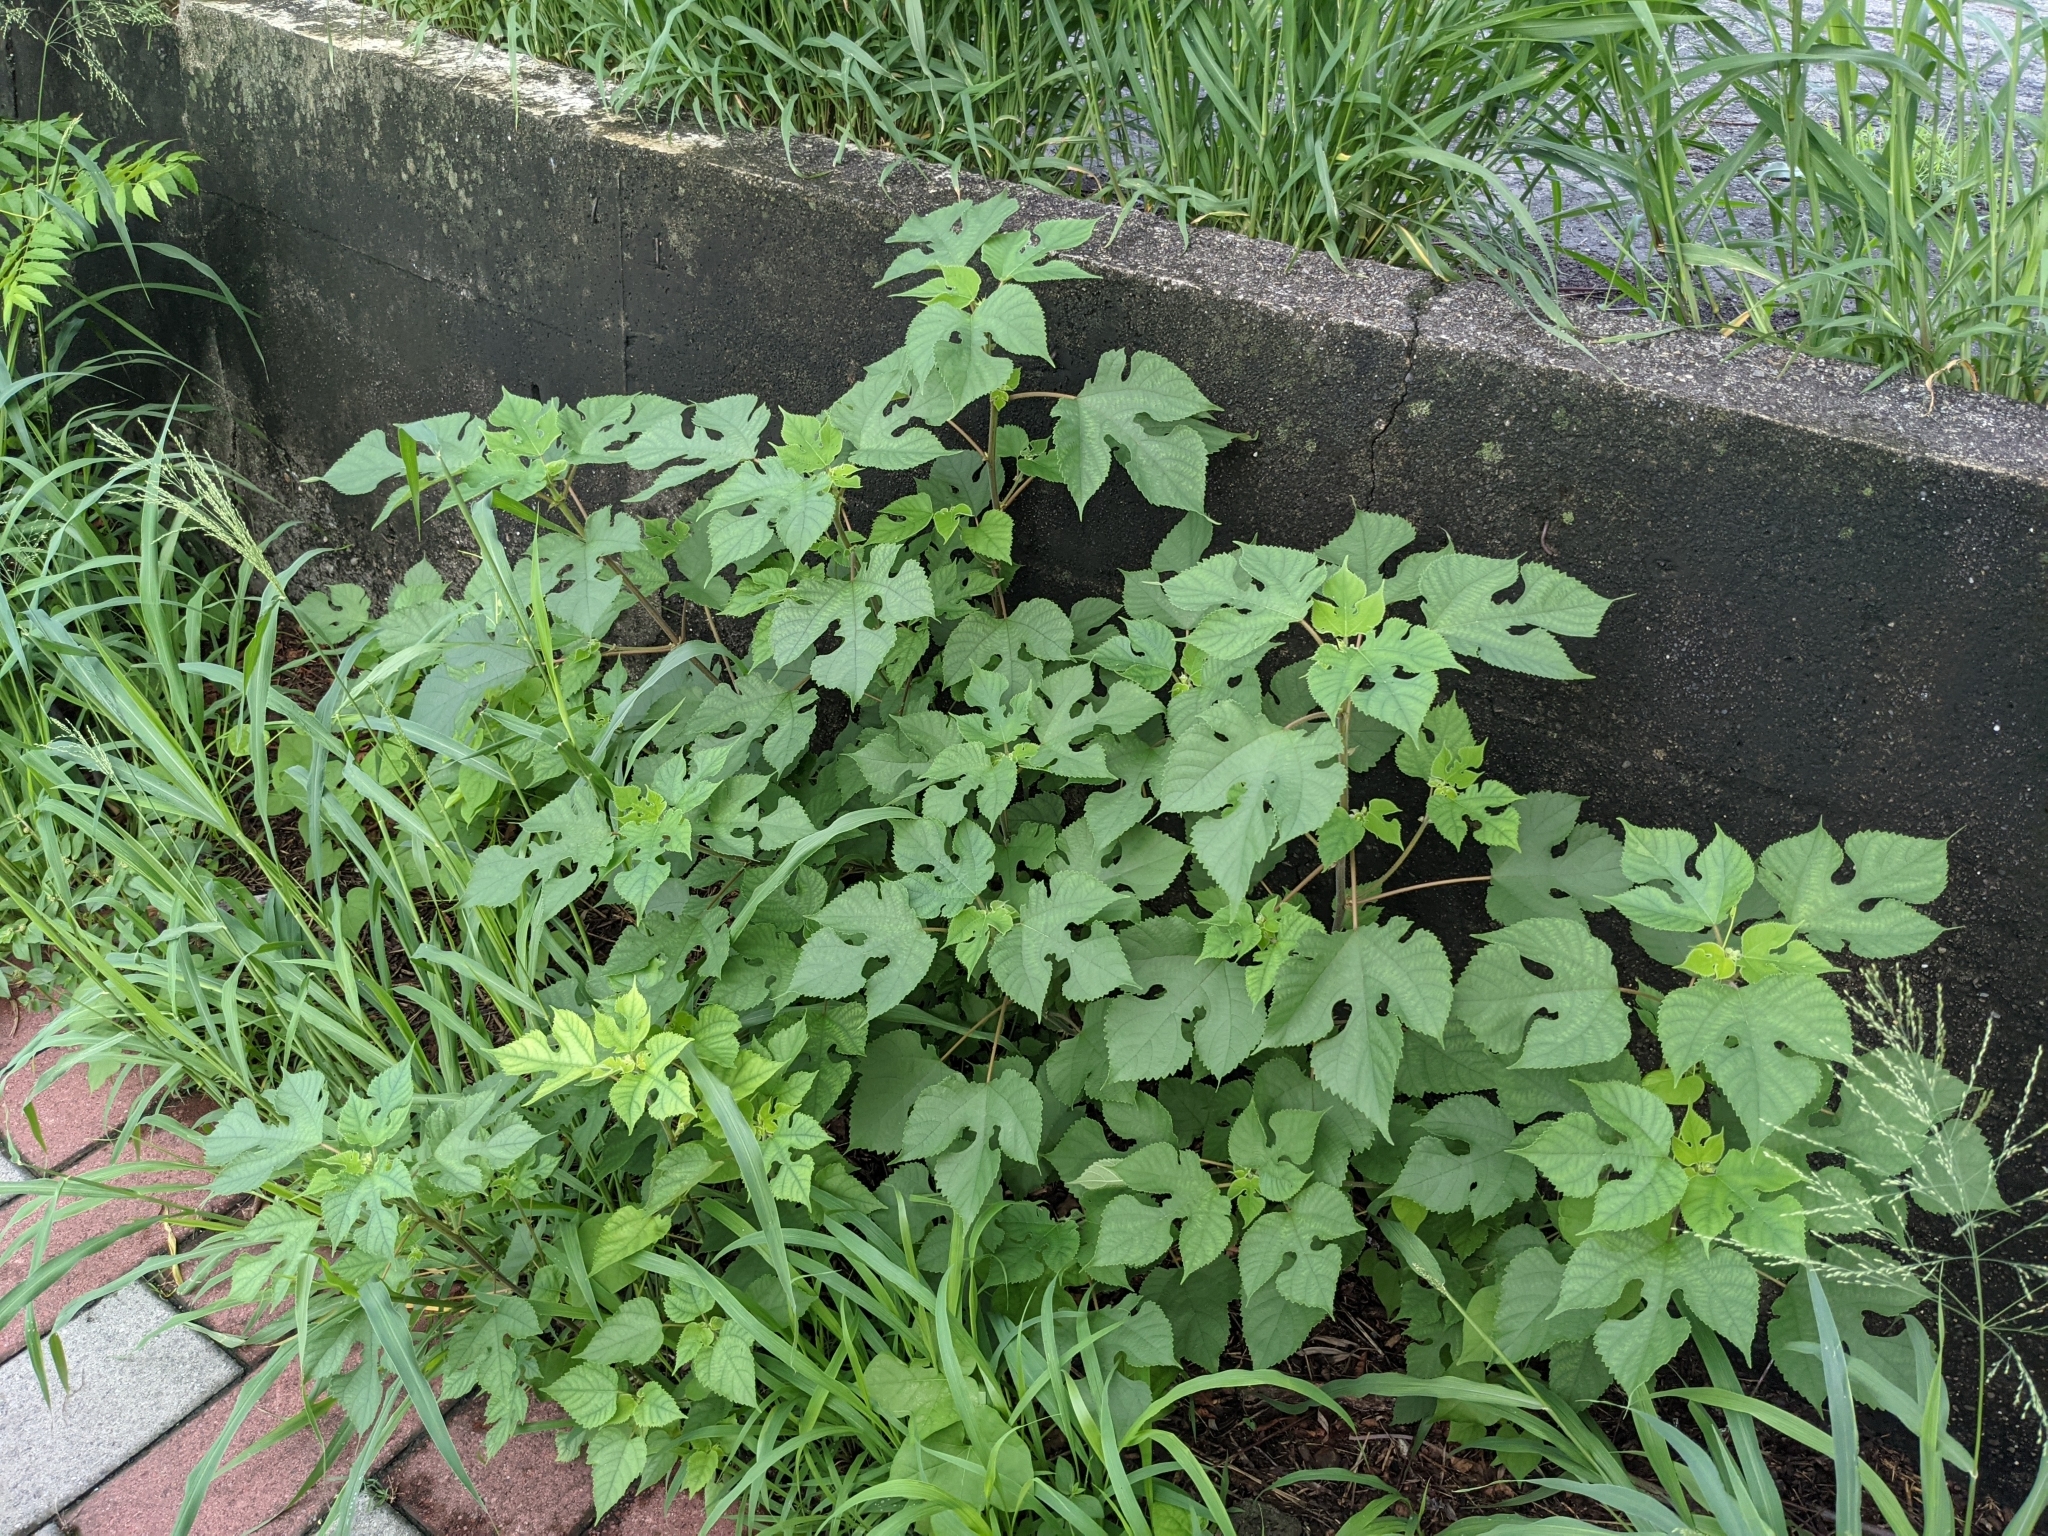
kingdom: Plantae
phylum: Tracheophyta
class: Magnoliopsida
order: Rosales
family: Moraceae
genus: Broussonetia
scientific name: Broussonetia papyrifera
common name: Paper mulberry
